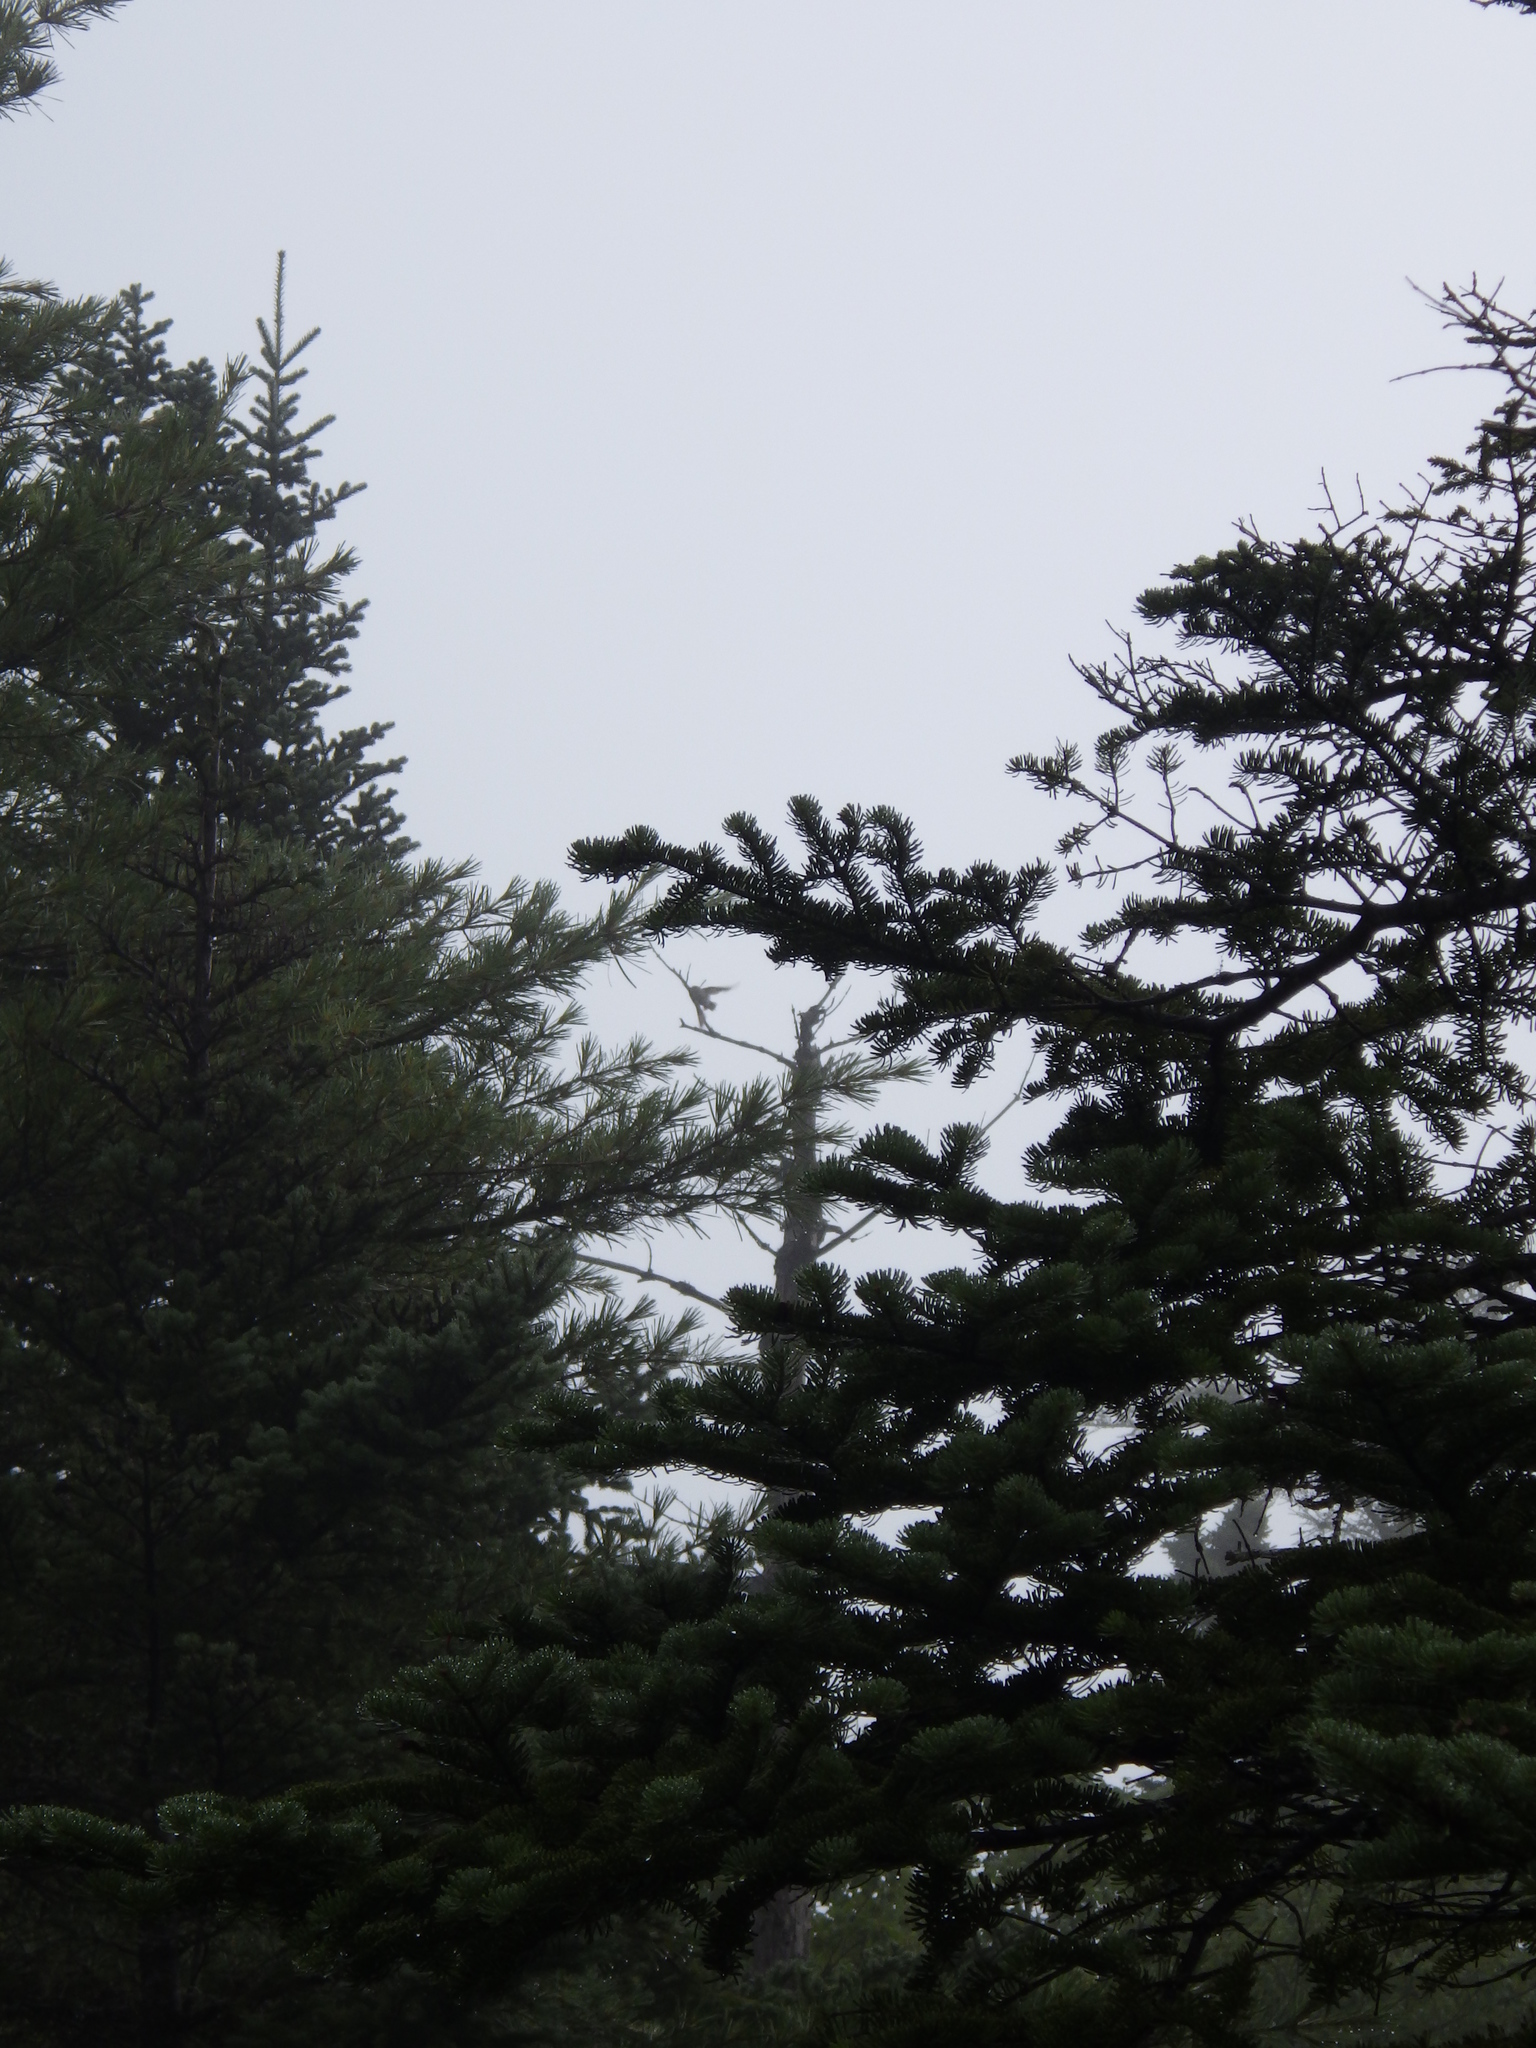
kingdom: Animalia
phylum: Chordata
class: Aves
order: Passeriformes
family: Turdidae
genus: Catharus
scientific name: Catharus guttatus
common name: Hermit thrush
